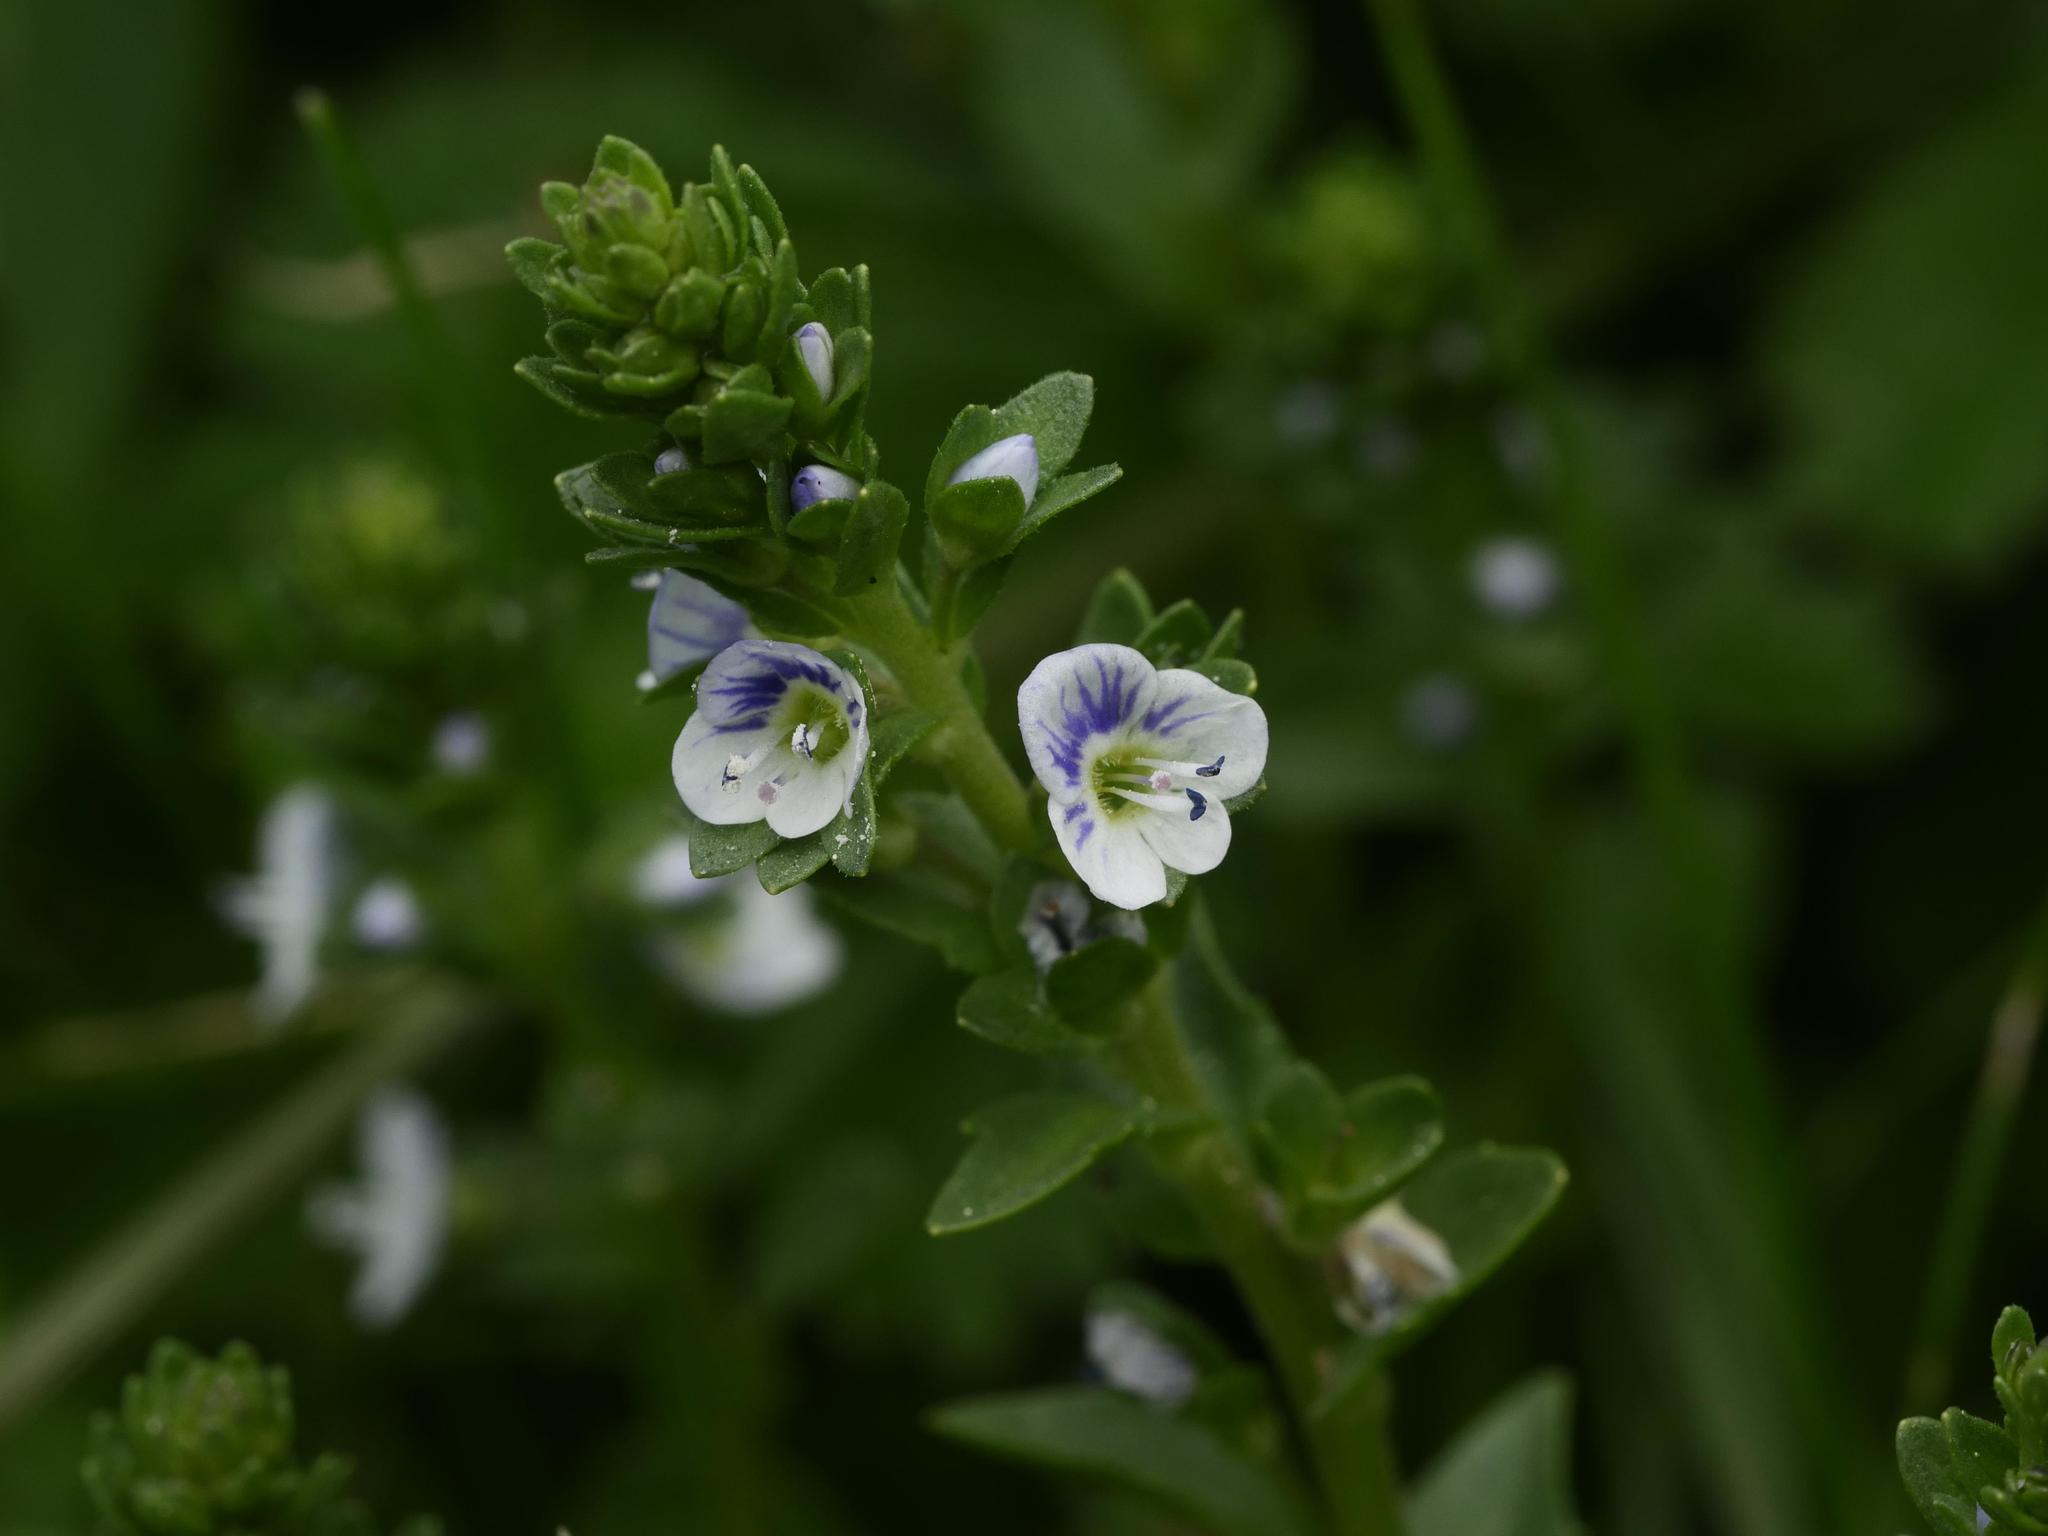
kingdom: Plantae
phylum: Tracheophyta
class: Magnoliopsida
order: Lamiales
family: Plantaginaceae
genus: Veronica
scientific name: Veronica serpyllifolia
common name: Thyme-leaved speedwell
